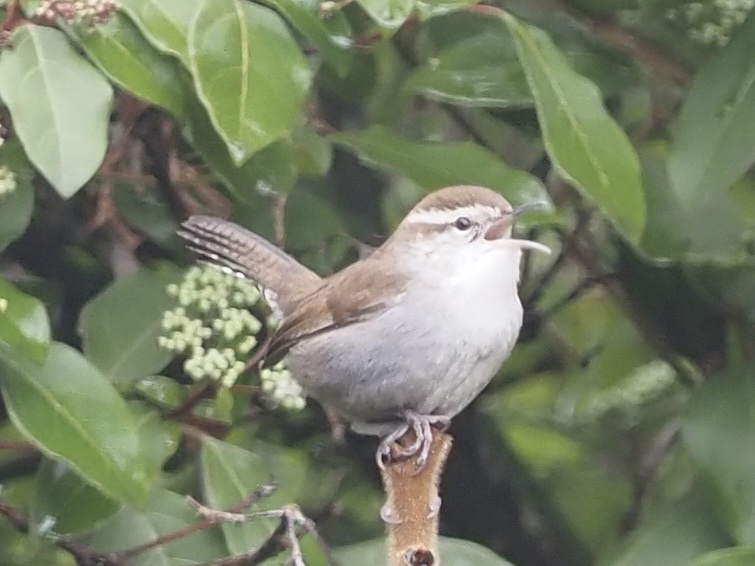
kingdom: Animalia
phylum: Chordata
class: Aves
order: Passeriformes
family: Troglodytidae
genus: Thryomanes
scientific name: Thryomanes bewickii
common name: Bewick's wren
